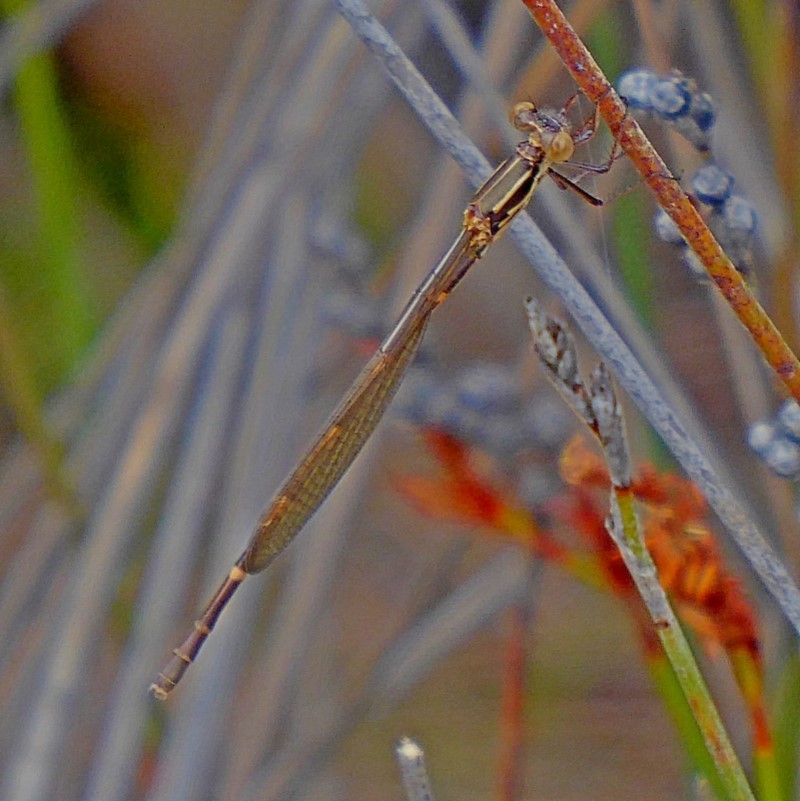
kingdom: Animalia
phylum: Arthropoda
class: Insecta
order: Odonata
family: Lestidae
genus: Austrolestes
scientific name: Austrolestes io
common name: Iota ringtail
